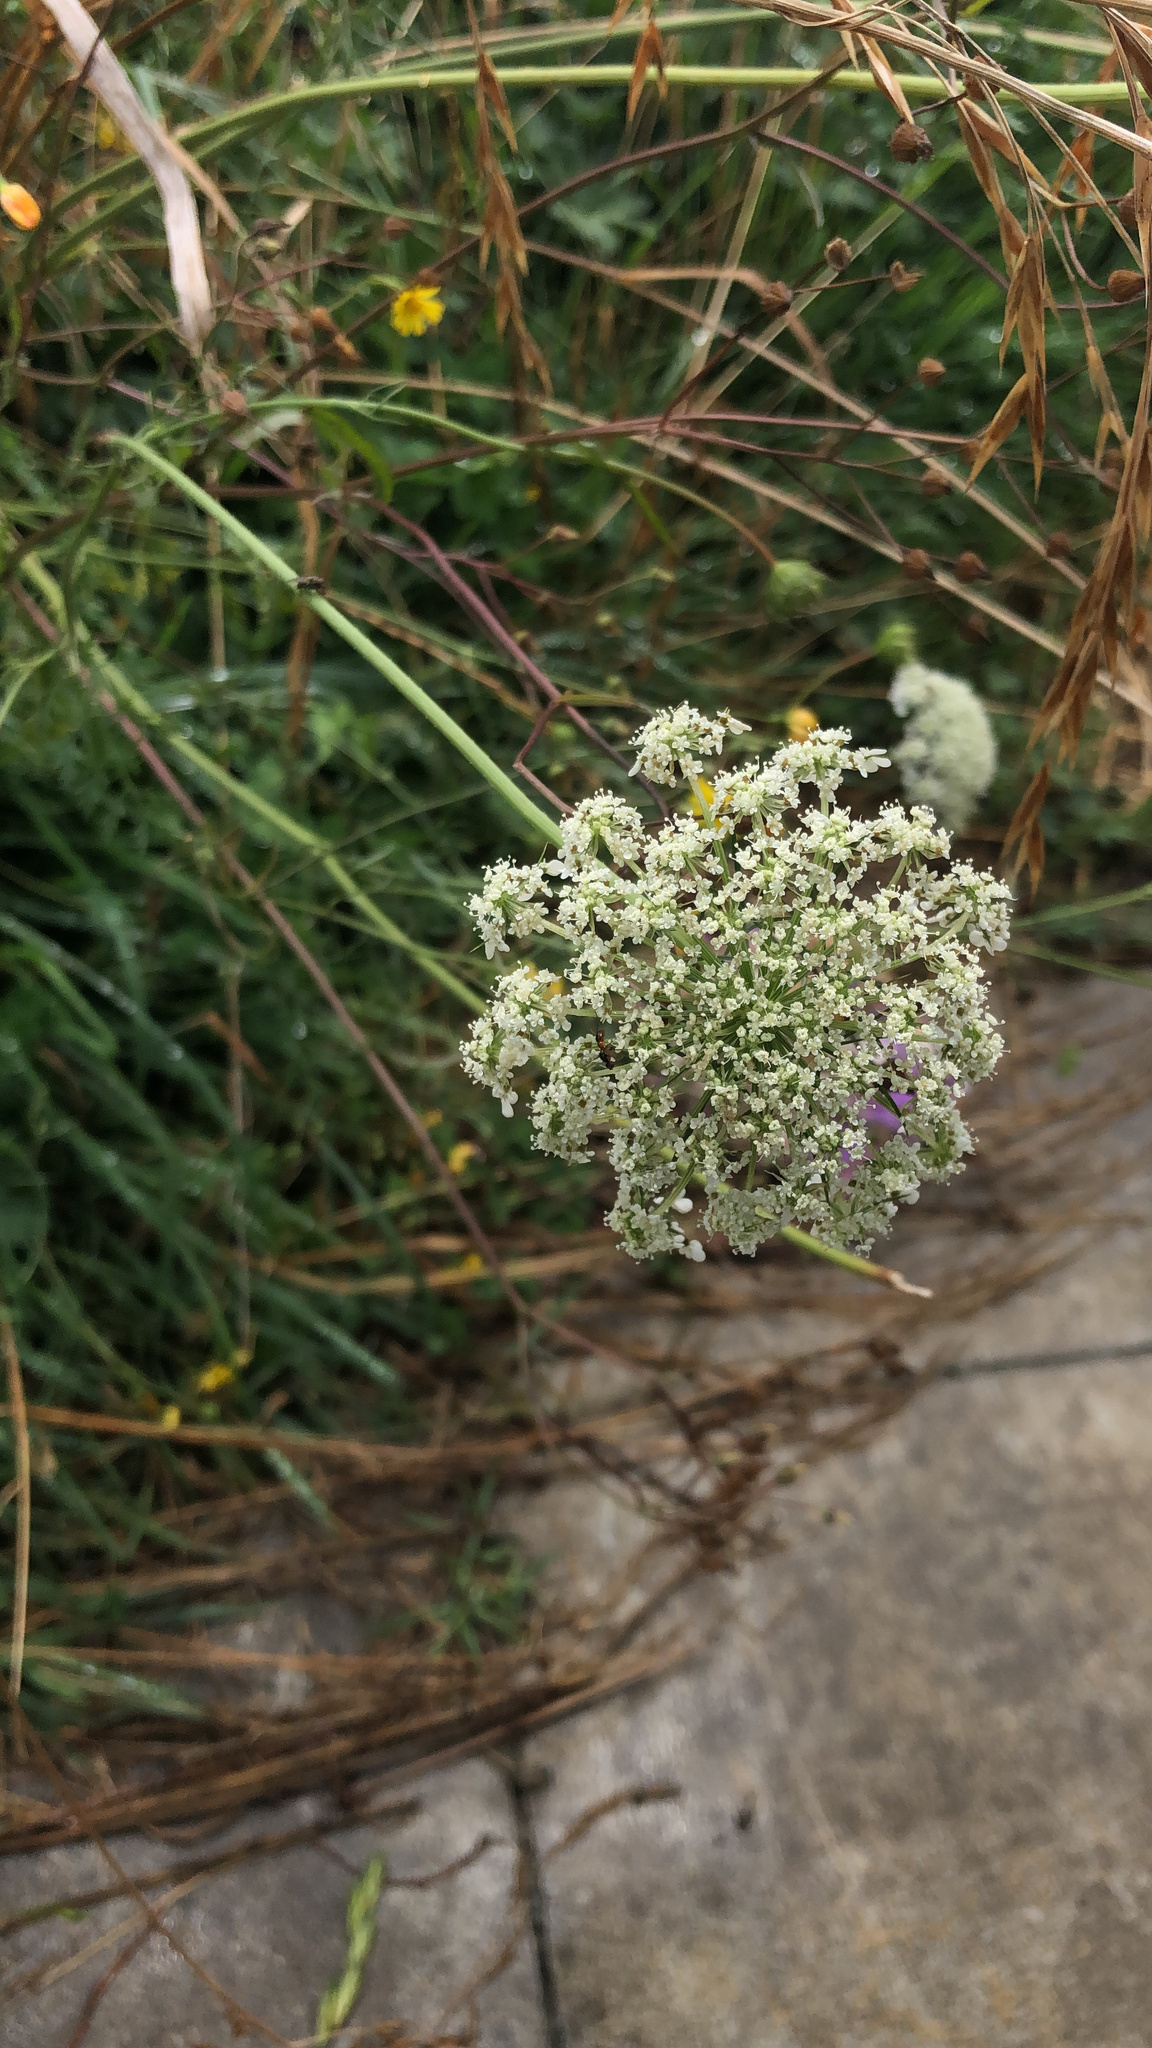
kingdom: Plantae
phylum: Tracheophyta
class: Magnoliopsida
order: Apiales
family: Apiaceae
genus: Daucus
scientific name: Daucus carota
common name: Wild carrot
